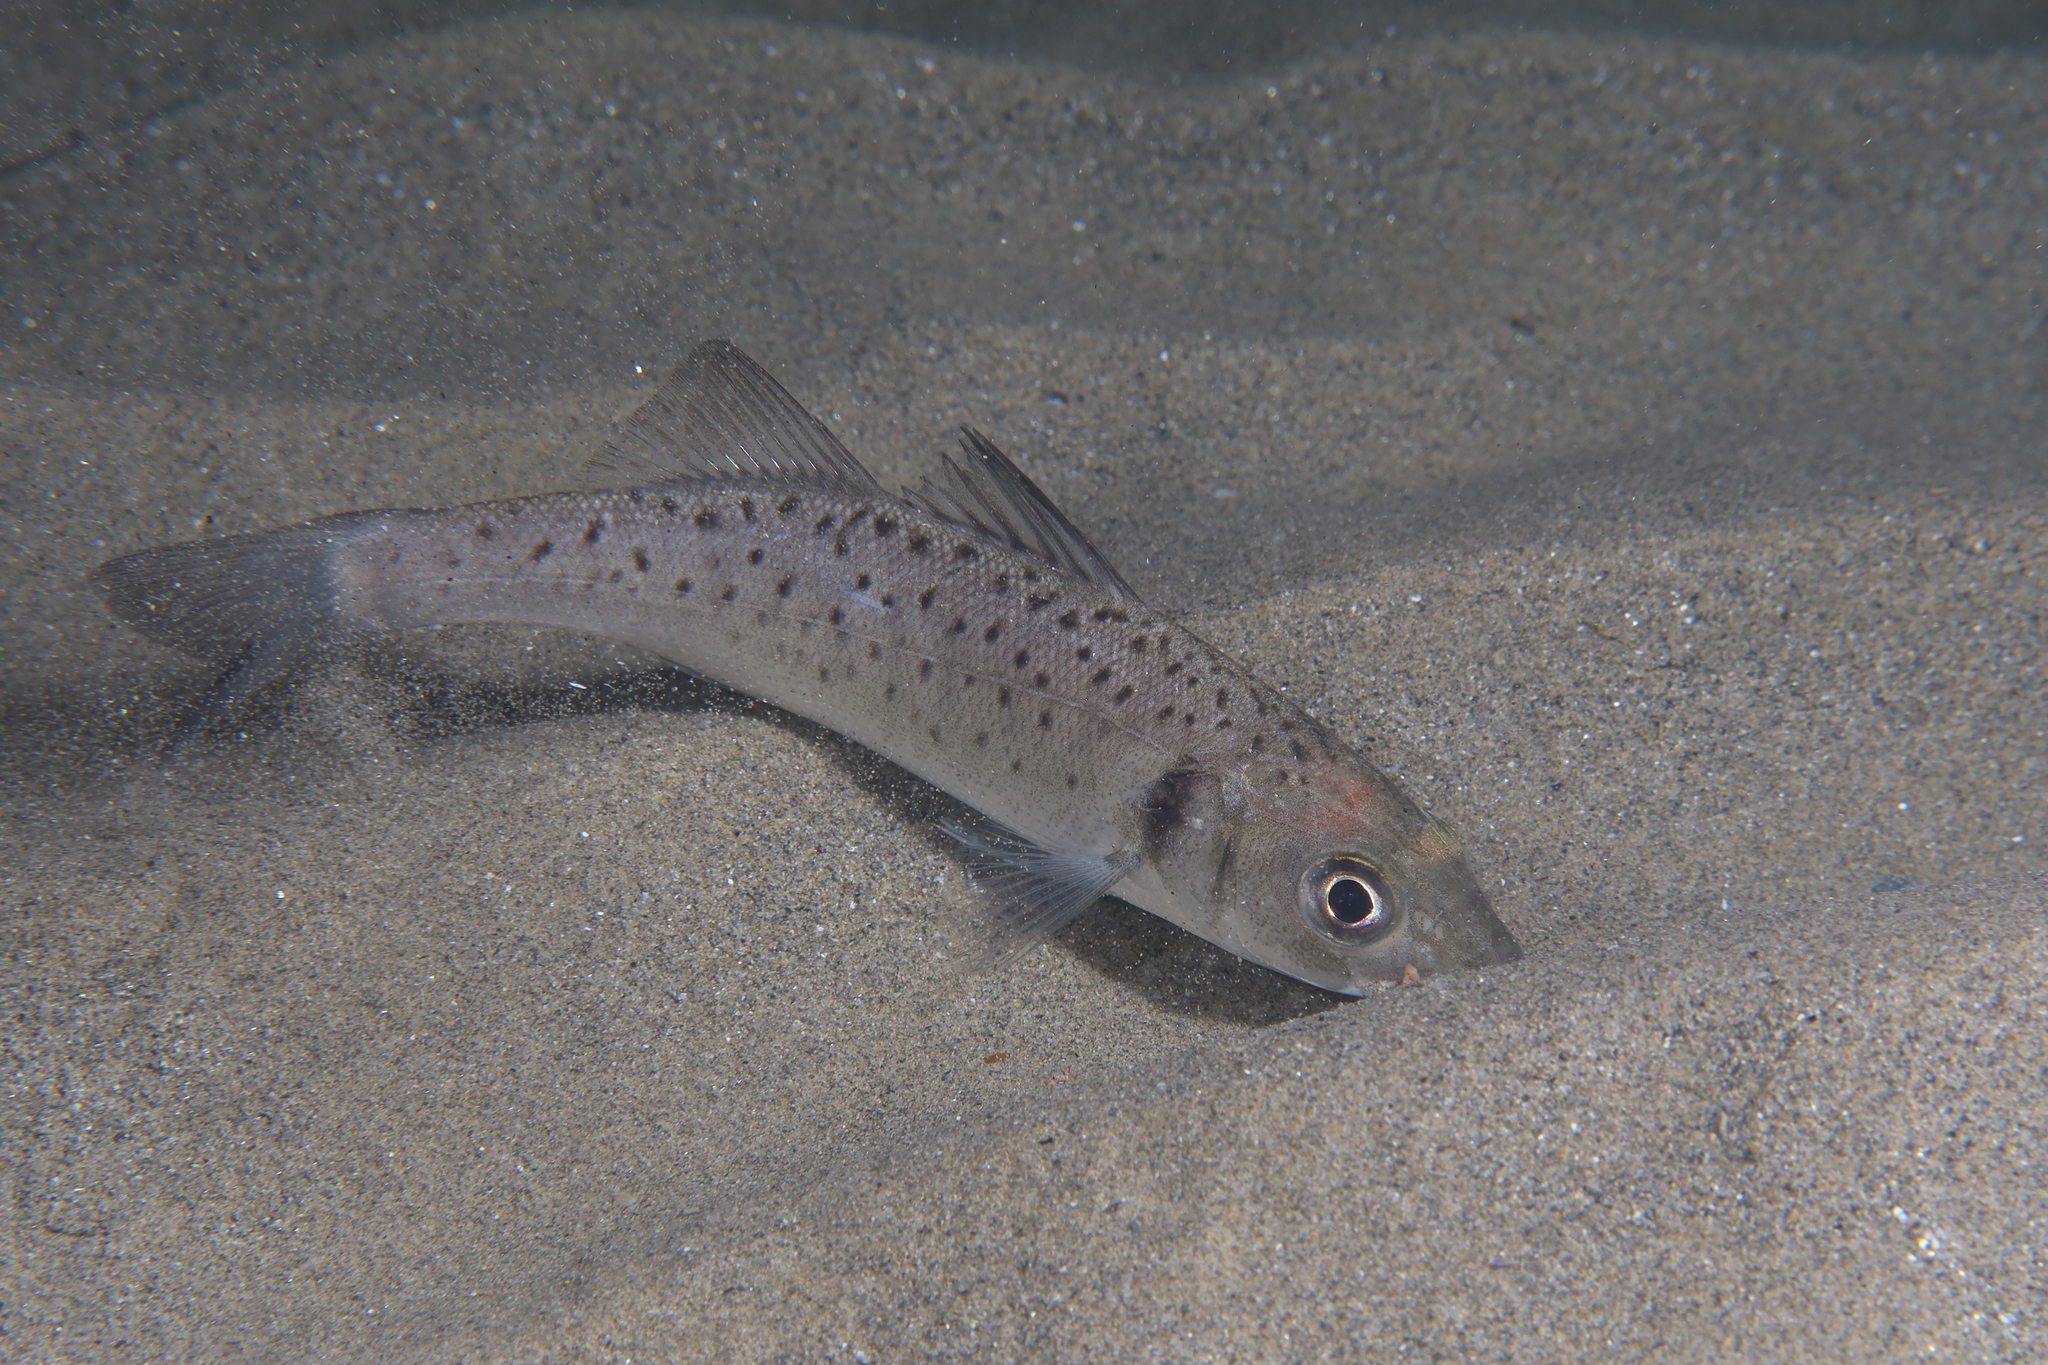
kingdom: Animalia
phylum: Chordata
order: Perciformes
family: Moronidae
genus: Dicentrarchus
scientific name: Dicentrarchus labrax
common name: European seabass
